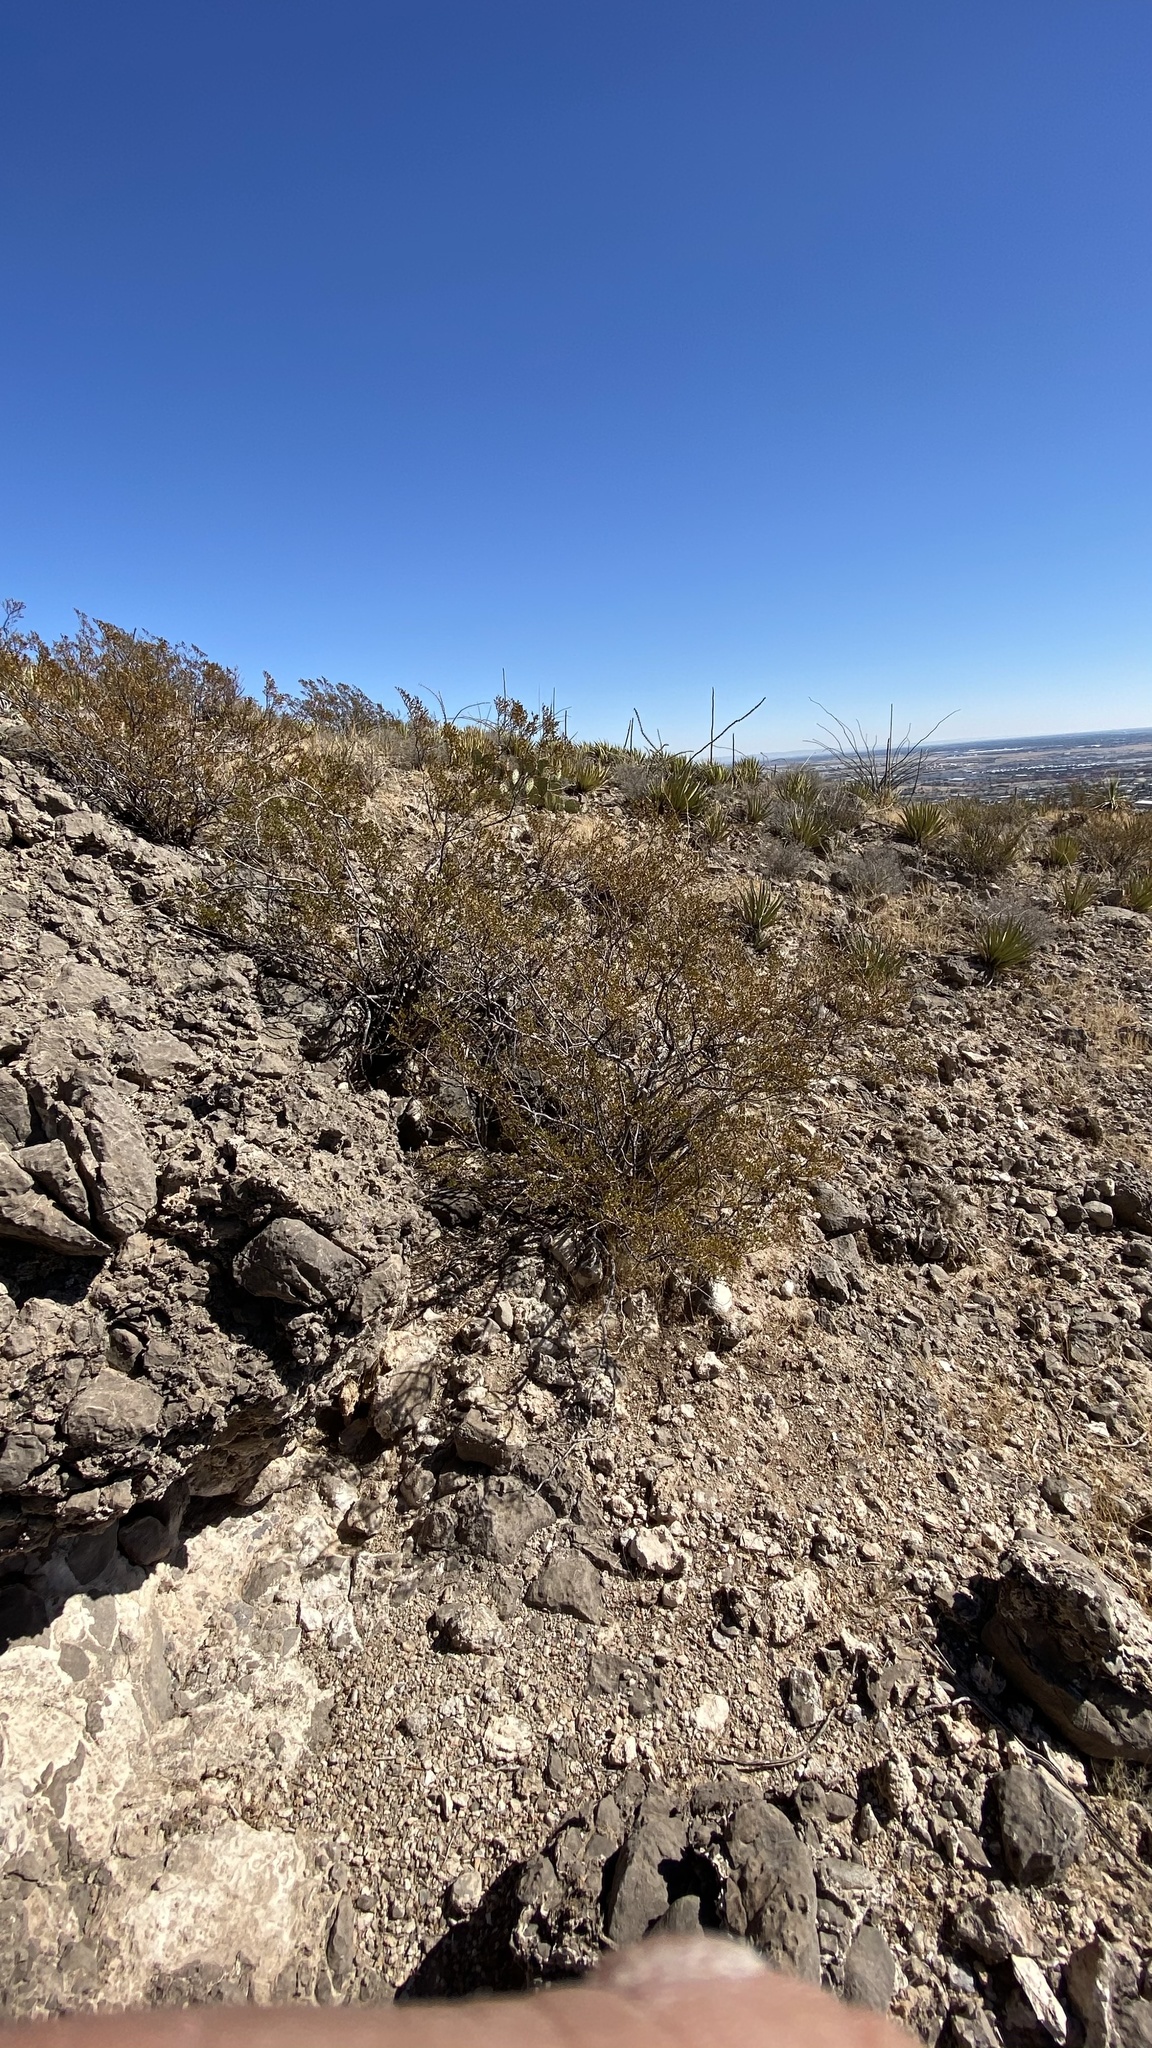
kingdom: Plantae
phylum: Tracheophyta
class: Magnoliopsida
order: Zygophyllales
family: Zygophyllaceae
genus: Larrea
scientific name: Larrea tridentata
